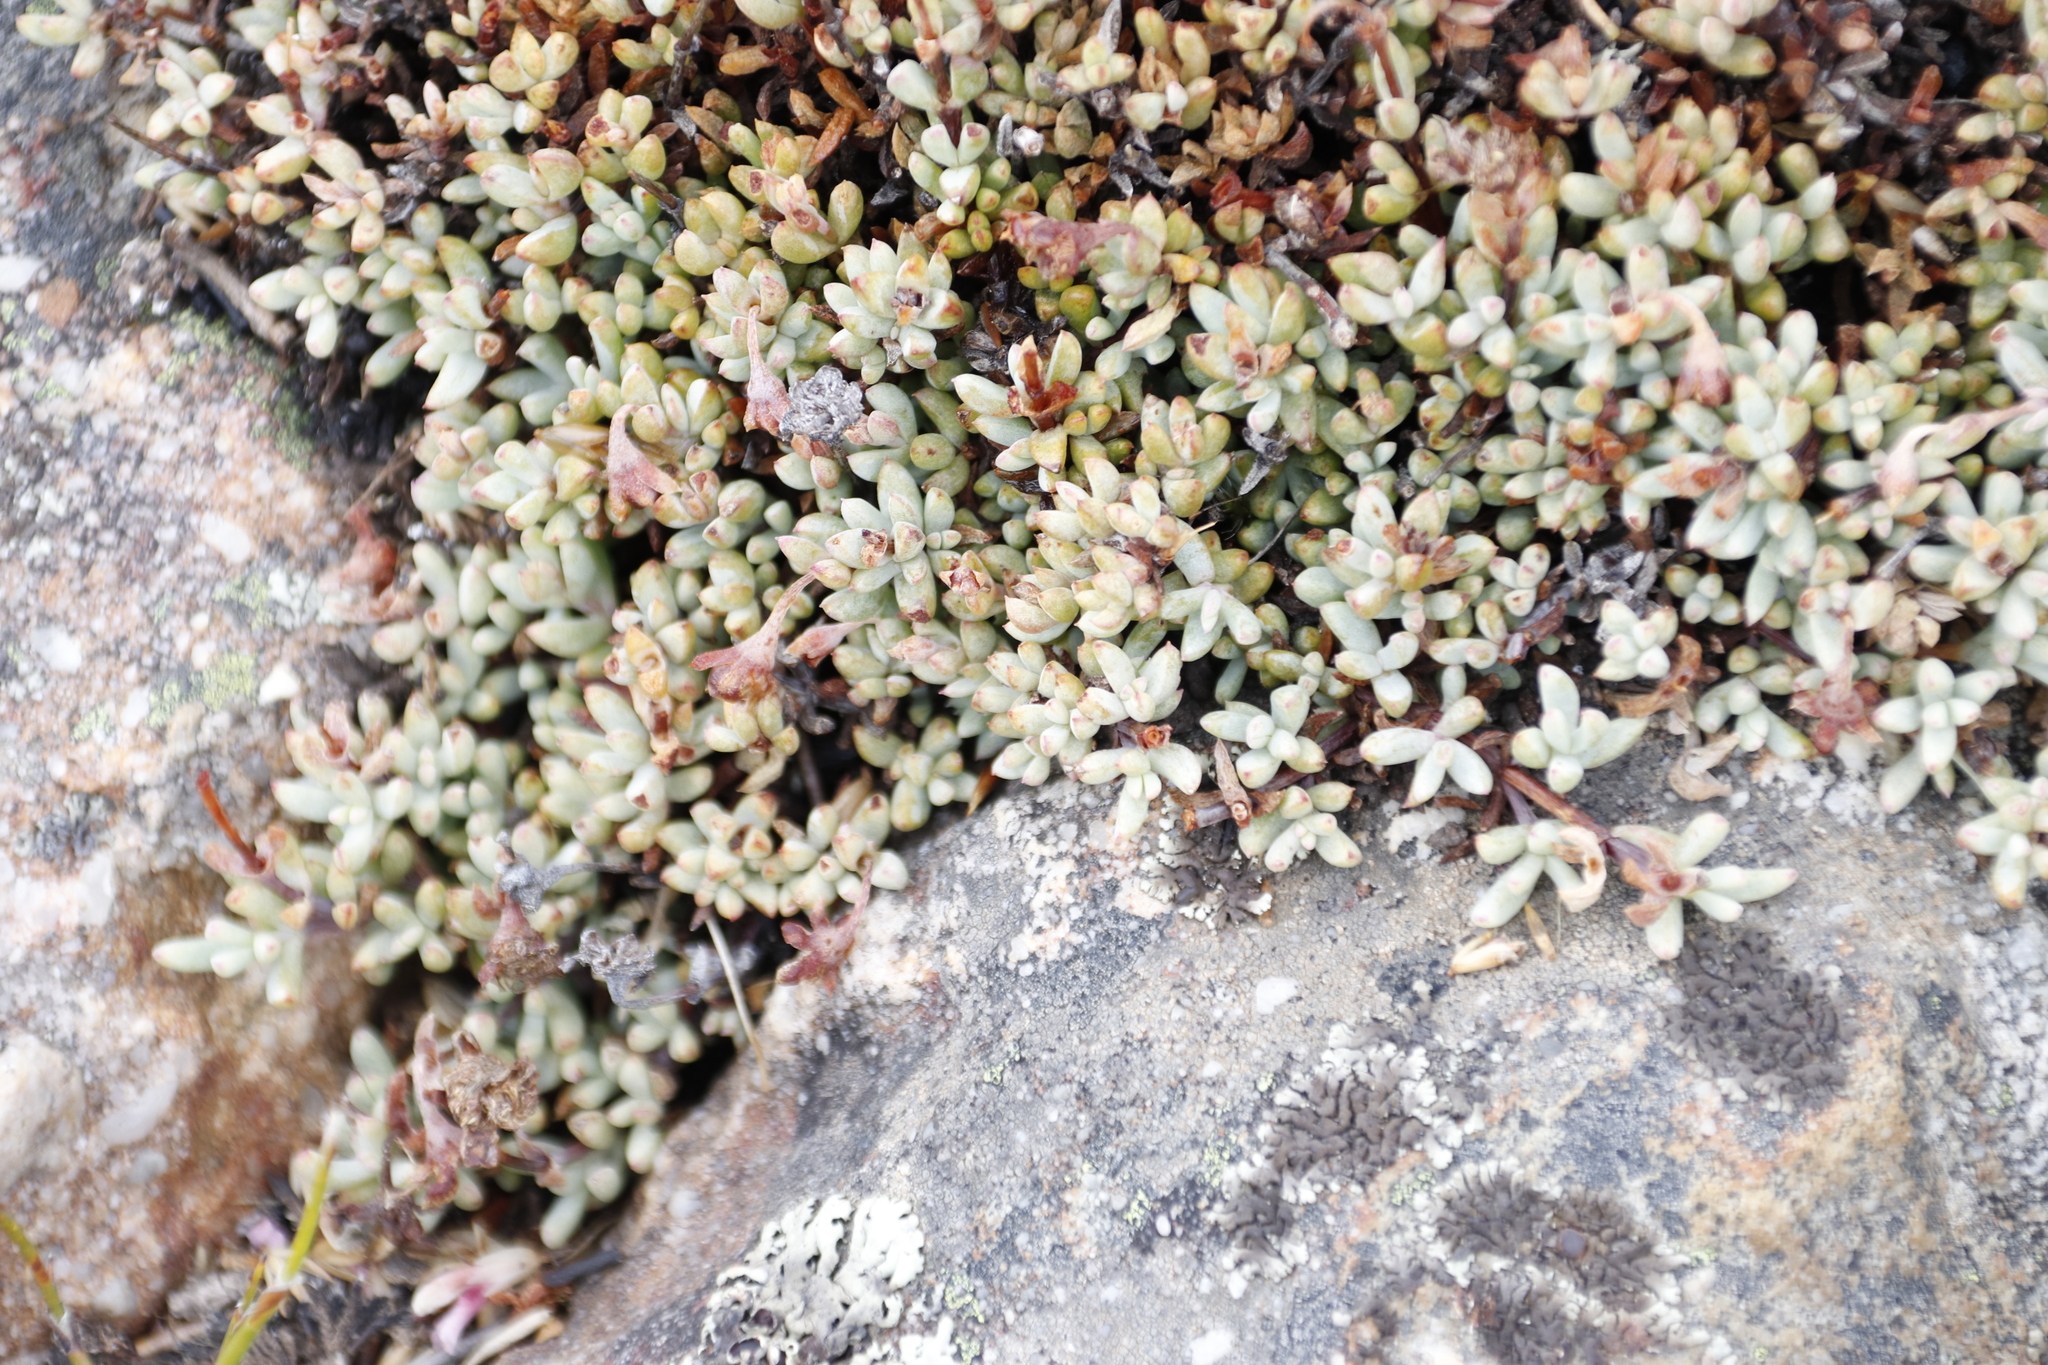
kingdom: Plantae
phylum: Tracheophyta
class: Magnoliopsida
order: Caryophyllales
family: Aizoaceae
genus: Oscularia
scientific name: Oscularia caulescens
